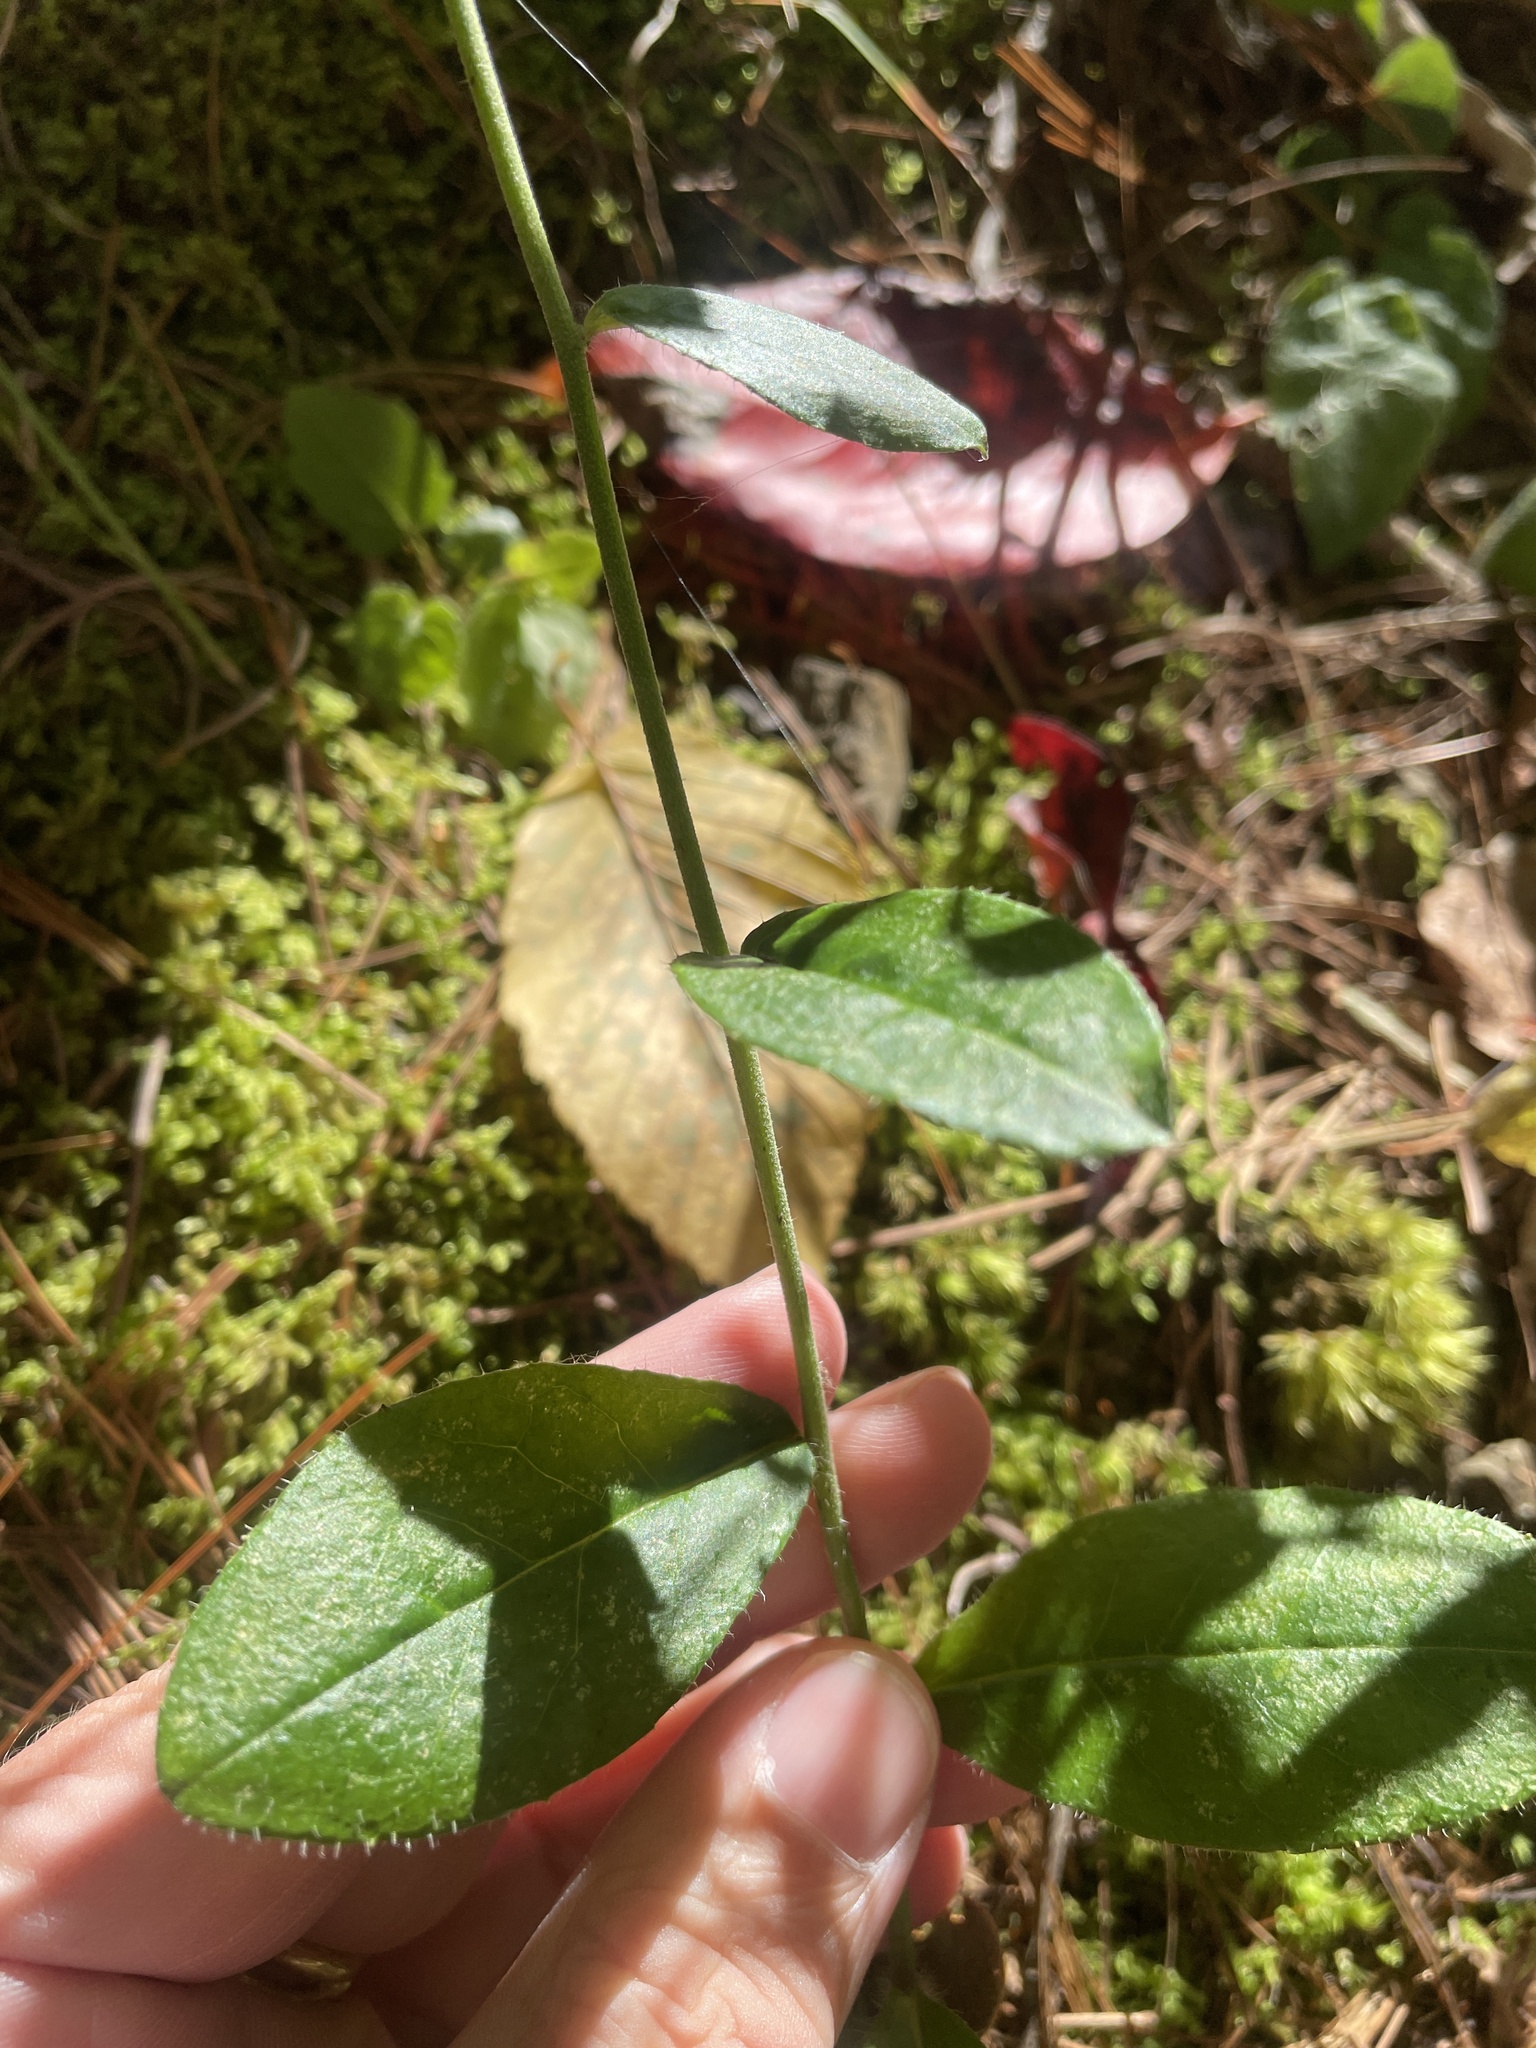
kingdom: Plantae
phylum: Tracheophyta
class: Magnoliopsida
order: Asterales
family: Asteraceae
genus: Hieracium
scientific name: Hieracium scabrum
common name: Rough hawkweed
